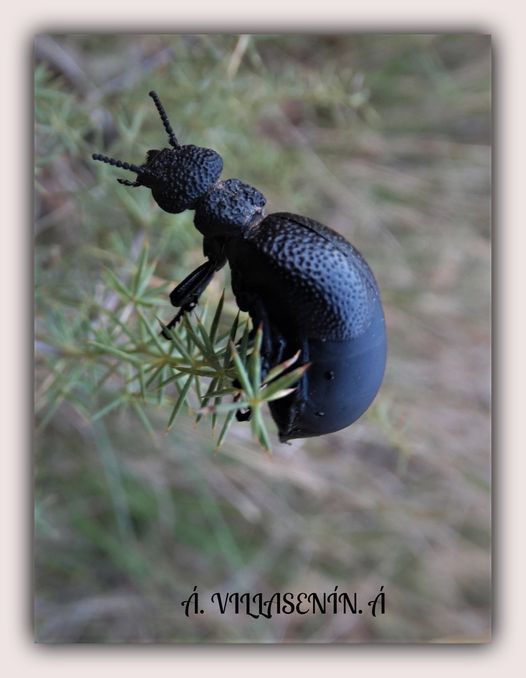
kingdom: Animalia
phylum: Arthropoda
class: Insecta
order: Coleoptera
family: Meloidae
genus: Meloe
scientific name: Meloe tuccius
